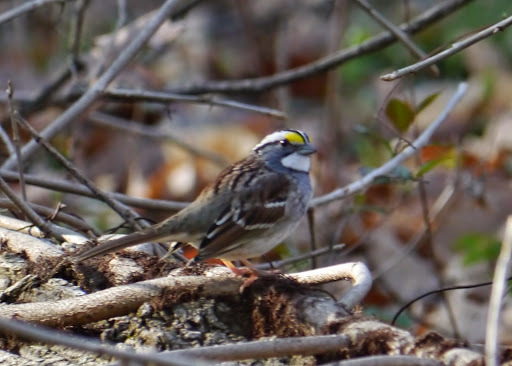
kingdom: Animalia
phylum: Chordata
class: Aves
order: Passeriformes
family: Passerellidae
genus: Zonotrichia
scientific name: Zonotrichia albicollis
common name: White-throated sparrow
